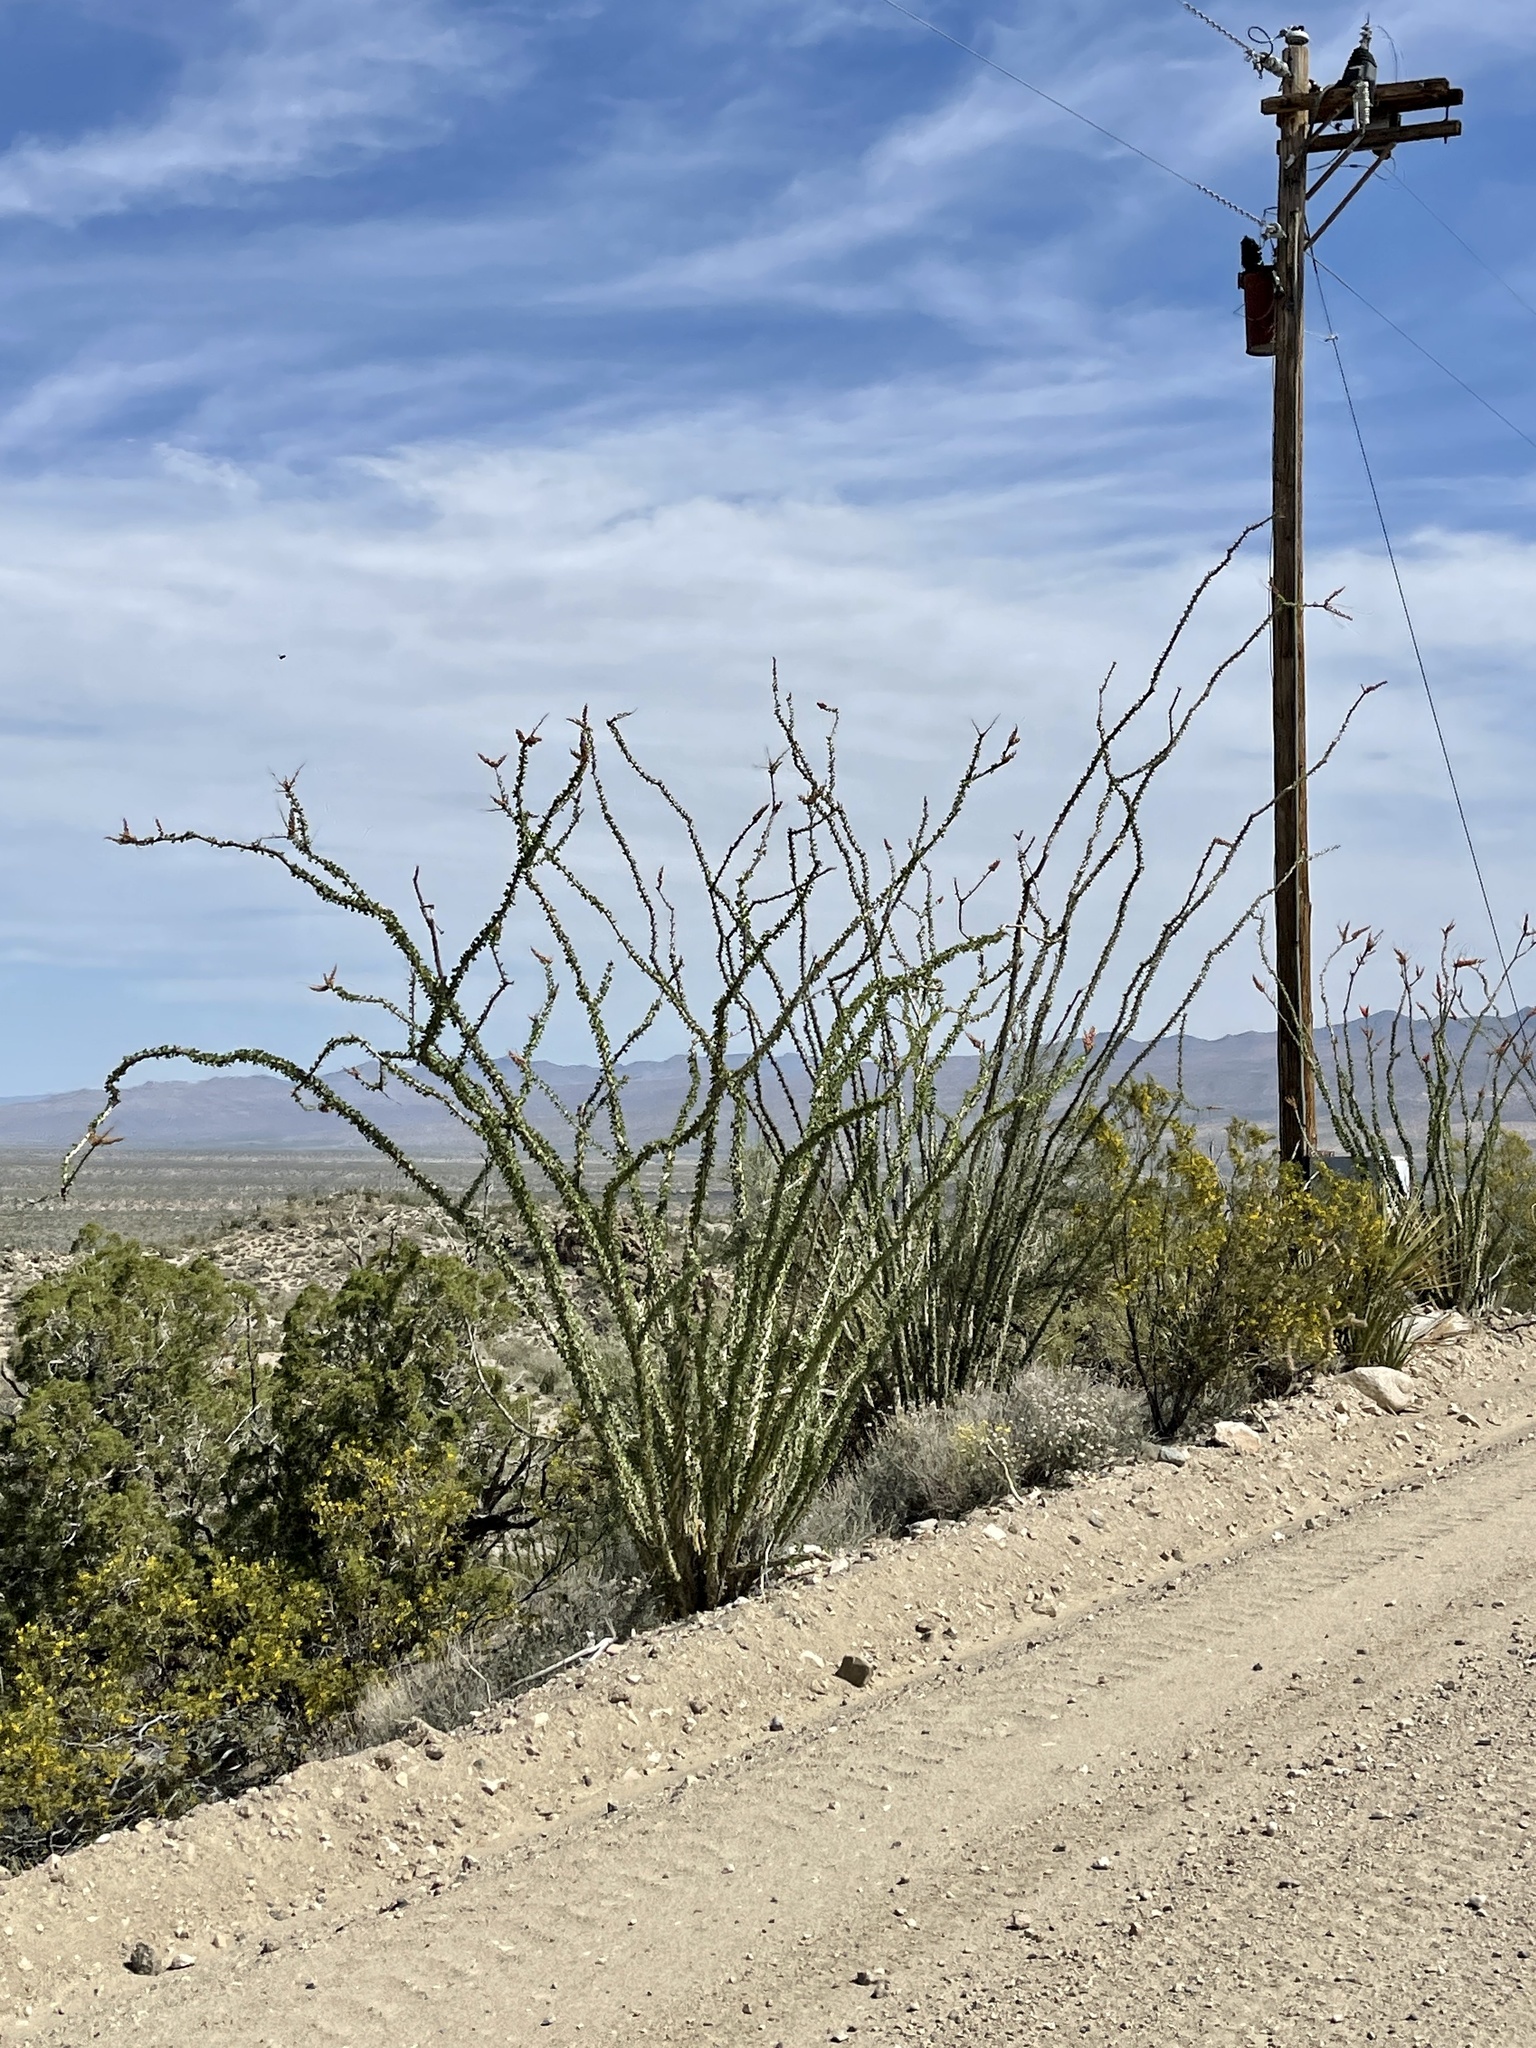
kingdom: Plantae
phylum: Tracheophyta
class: Magnoliopsida
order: Ericales
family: Fouquieriaceae
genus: Fouquieria
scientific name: Fouquieria splendens
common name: Vine-cactus
